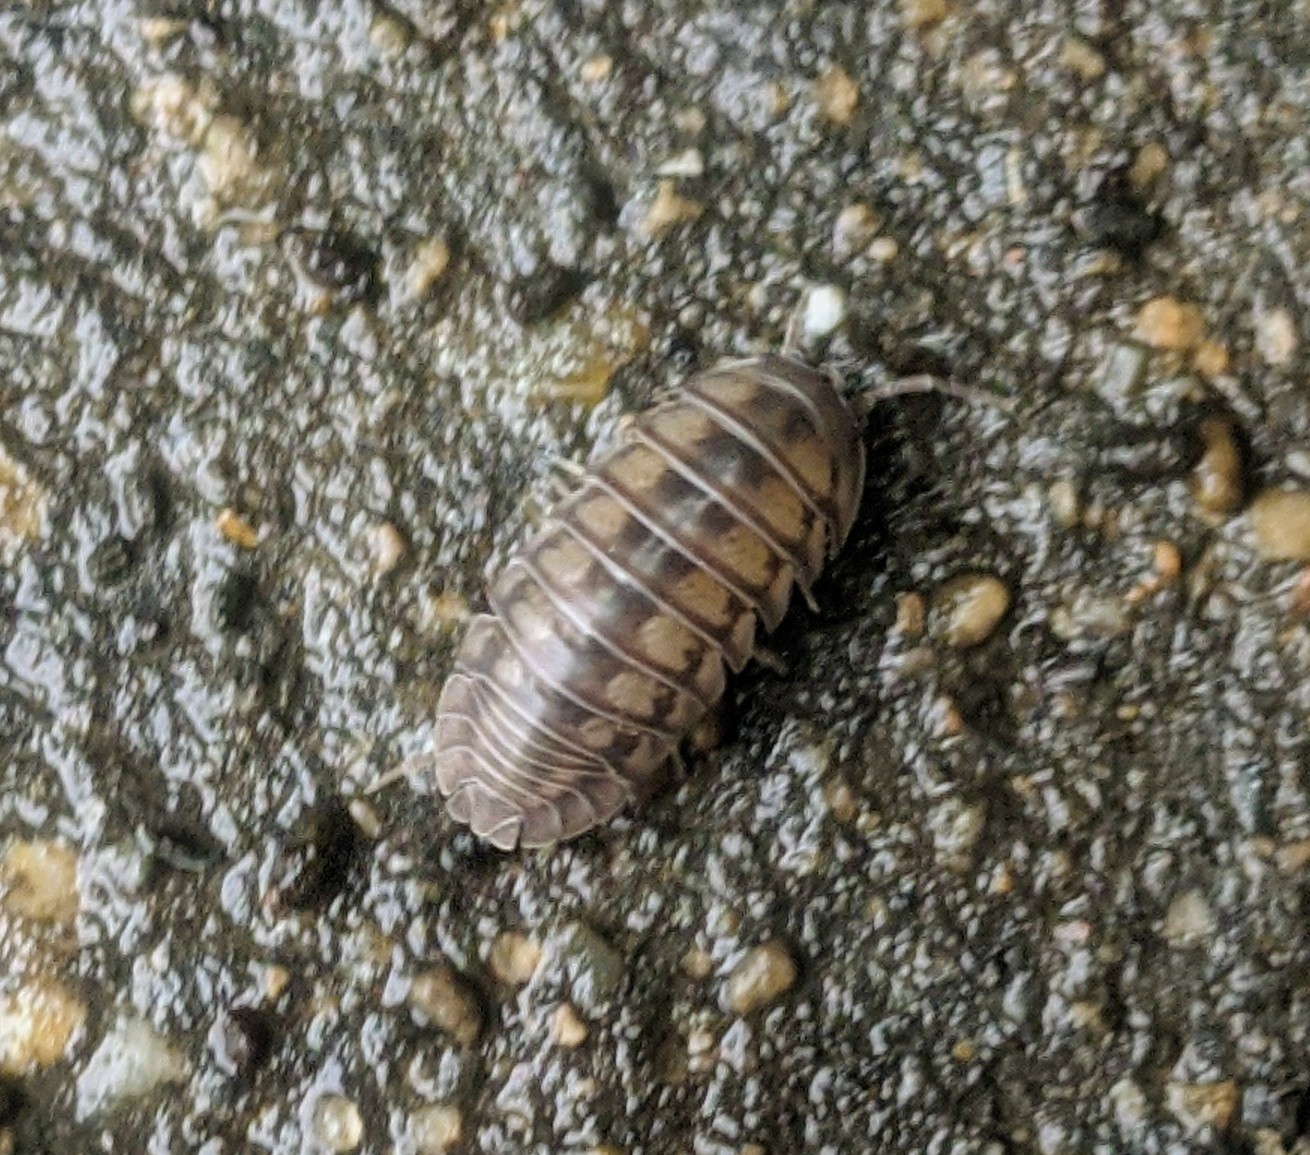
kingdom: Animalia
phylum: Arthropoda
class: Malacostraca
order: Isopoda
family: Armadillidiidae
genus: Armadillidium
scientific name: Armadillidium nasatum
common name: Isopod
